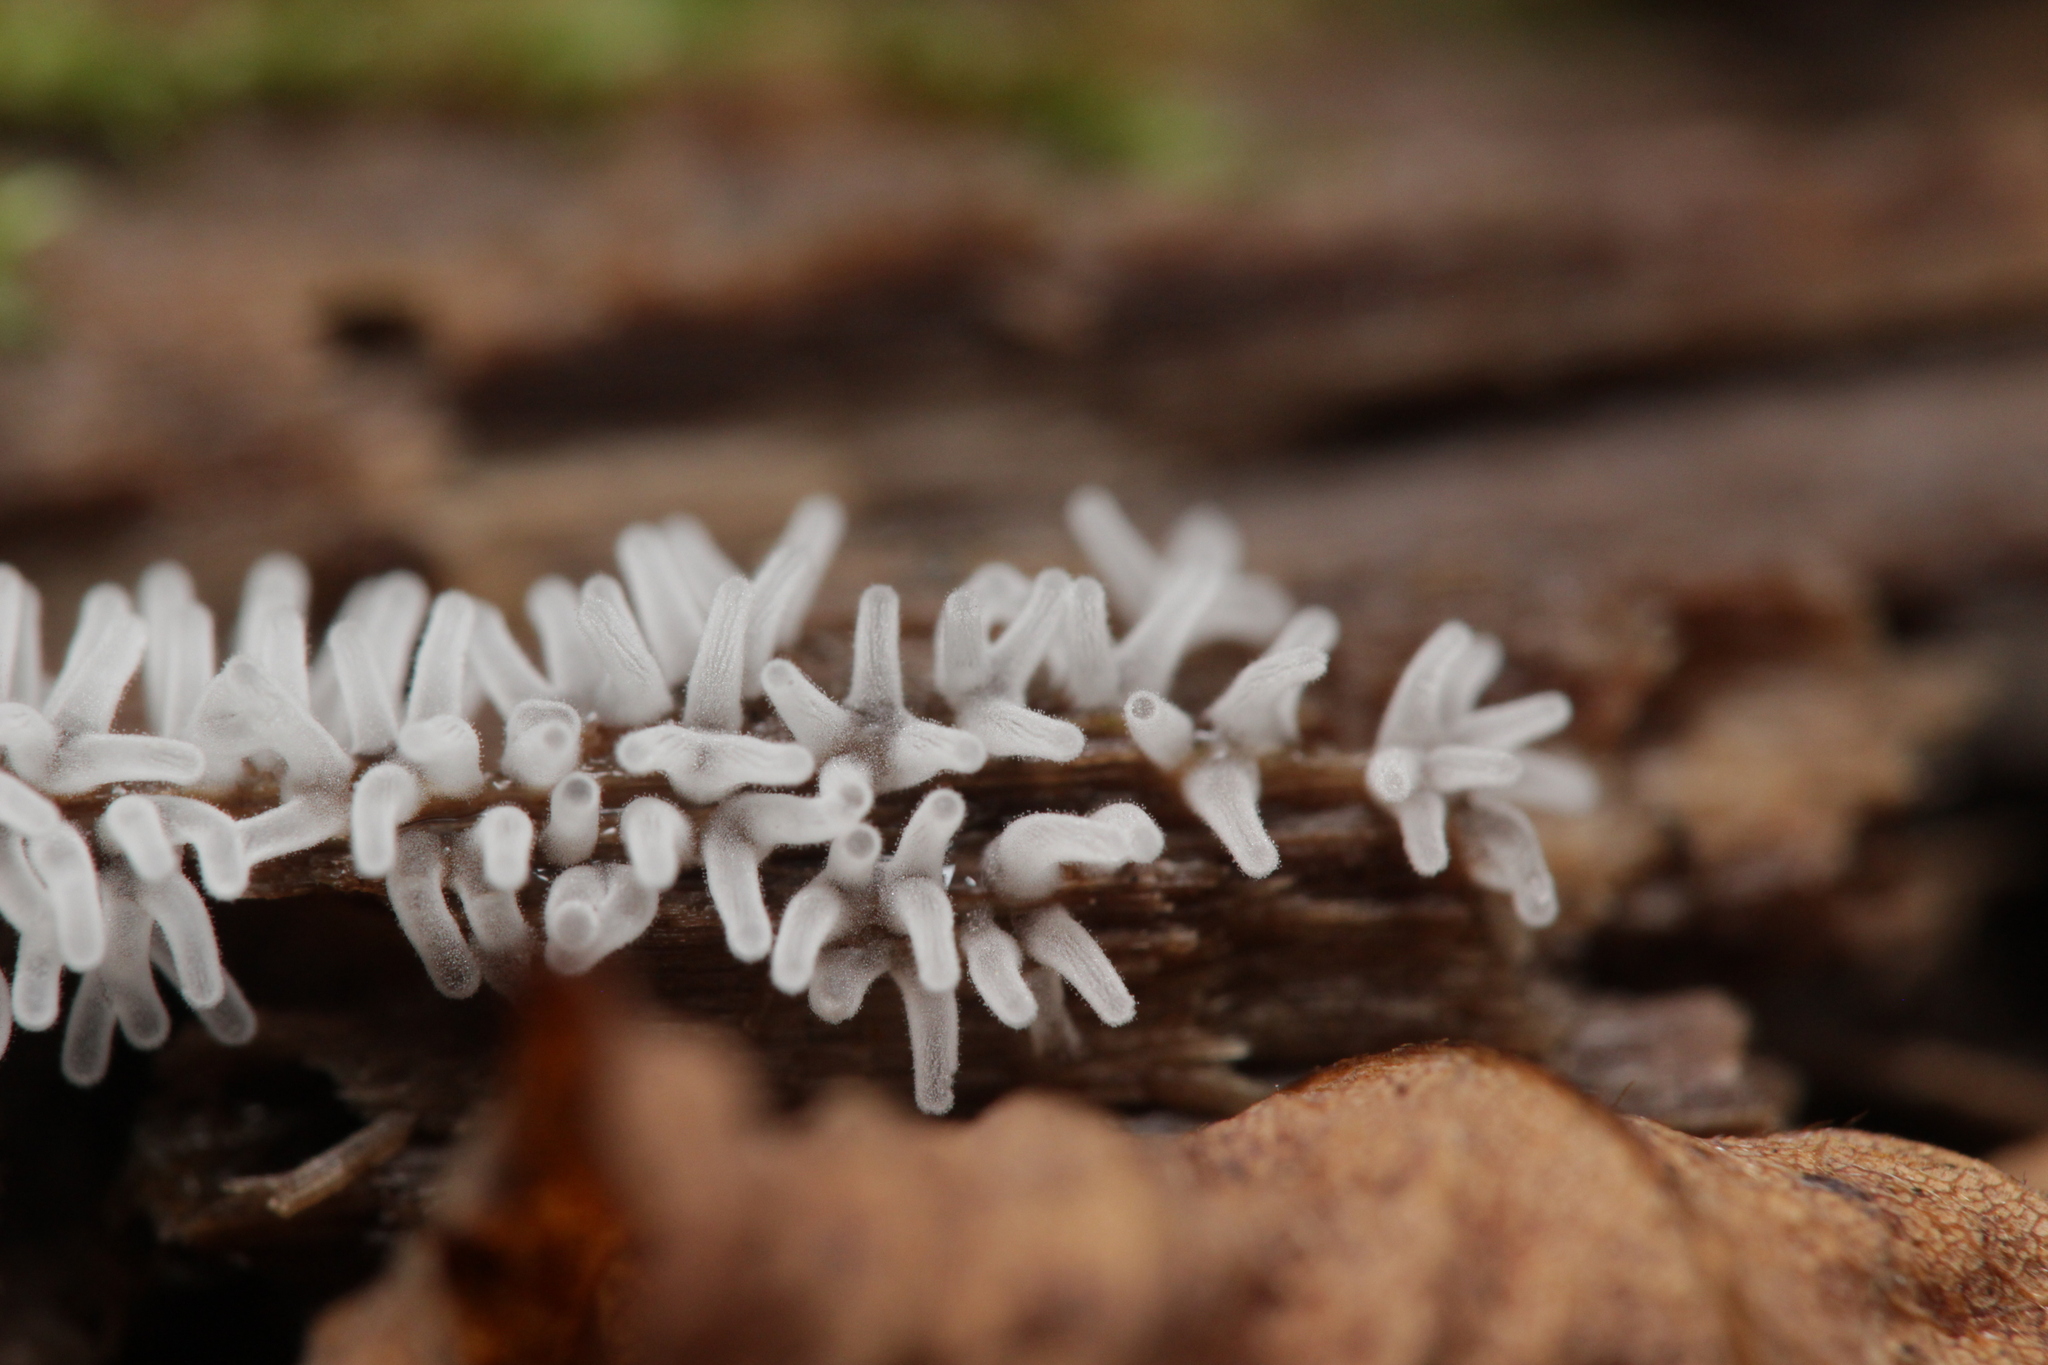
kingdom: Protozoa
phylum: Mycetozoa
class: Protosteliomycetes
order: Ceratiomyxales
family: Ceratiomyxaceae
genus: Ceratiomyxa
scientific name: Ceratiomyxa fruticulosa
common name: Honeycomb coral slime mold
